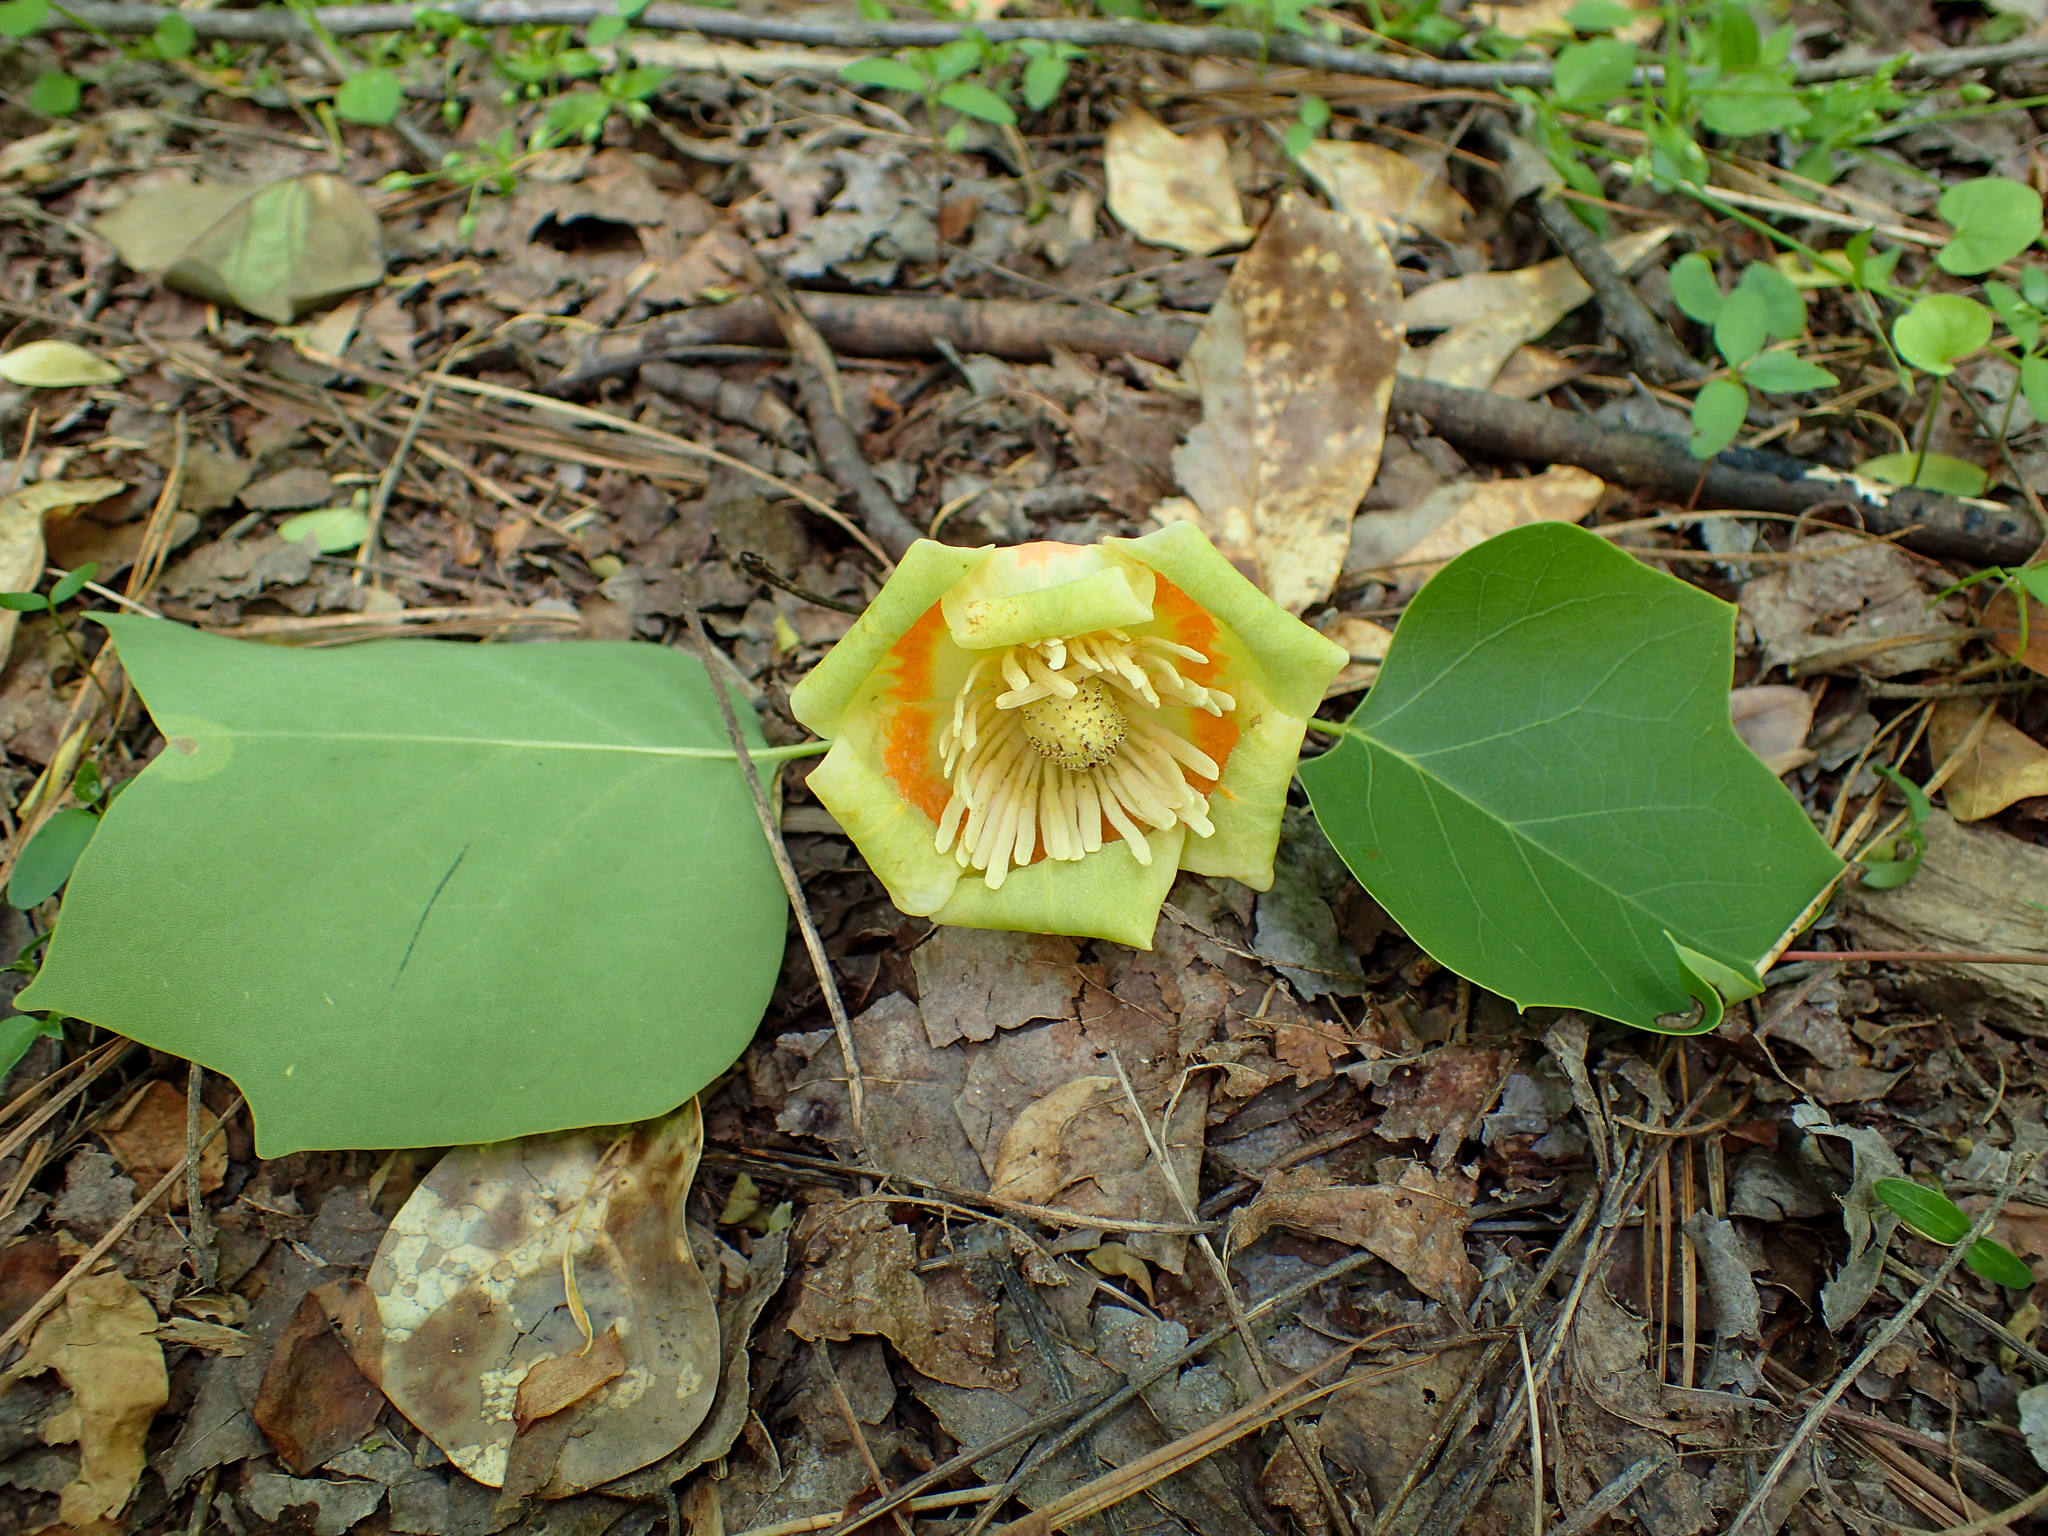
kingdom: Plantae
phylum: Tracheophyta
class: Magnoliopsida
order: Magnoliales
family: Magnoliaceae
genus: Liriodendron
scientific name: Liriodendron tulipifera
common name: Tulip tree
